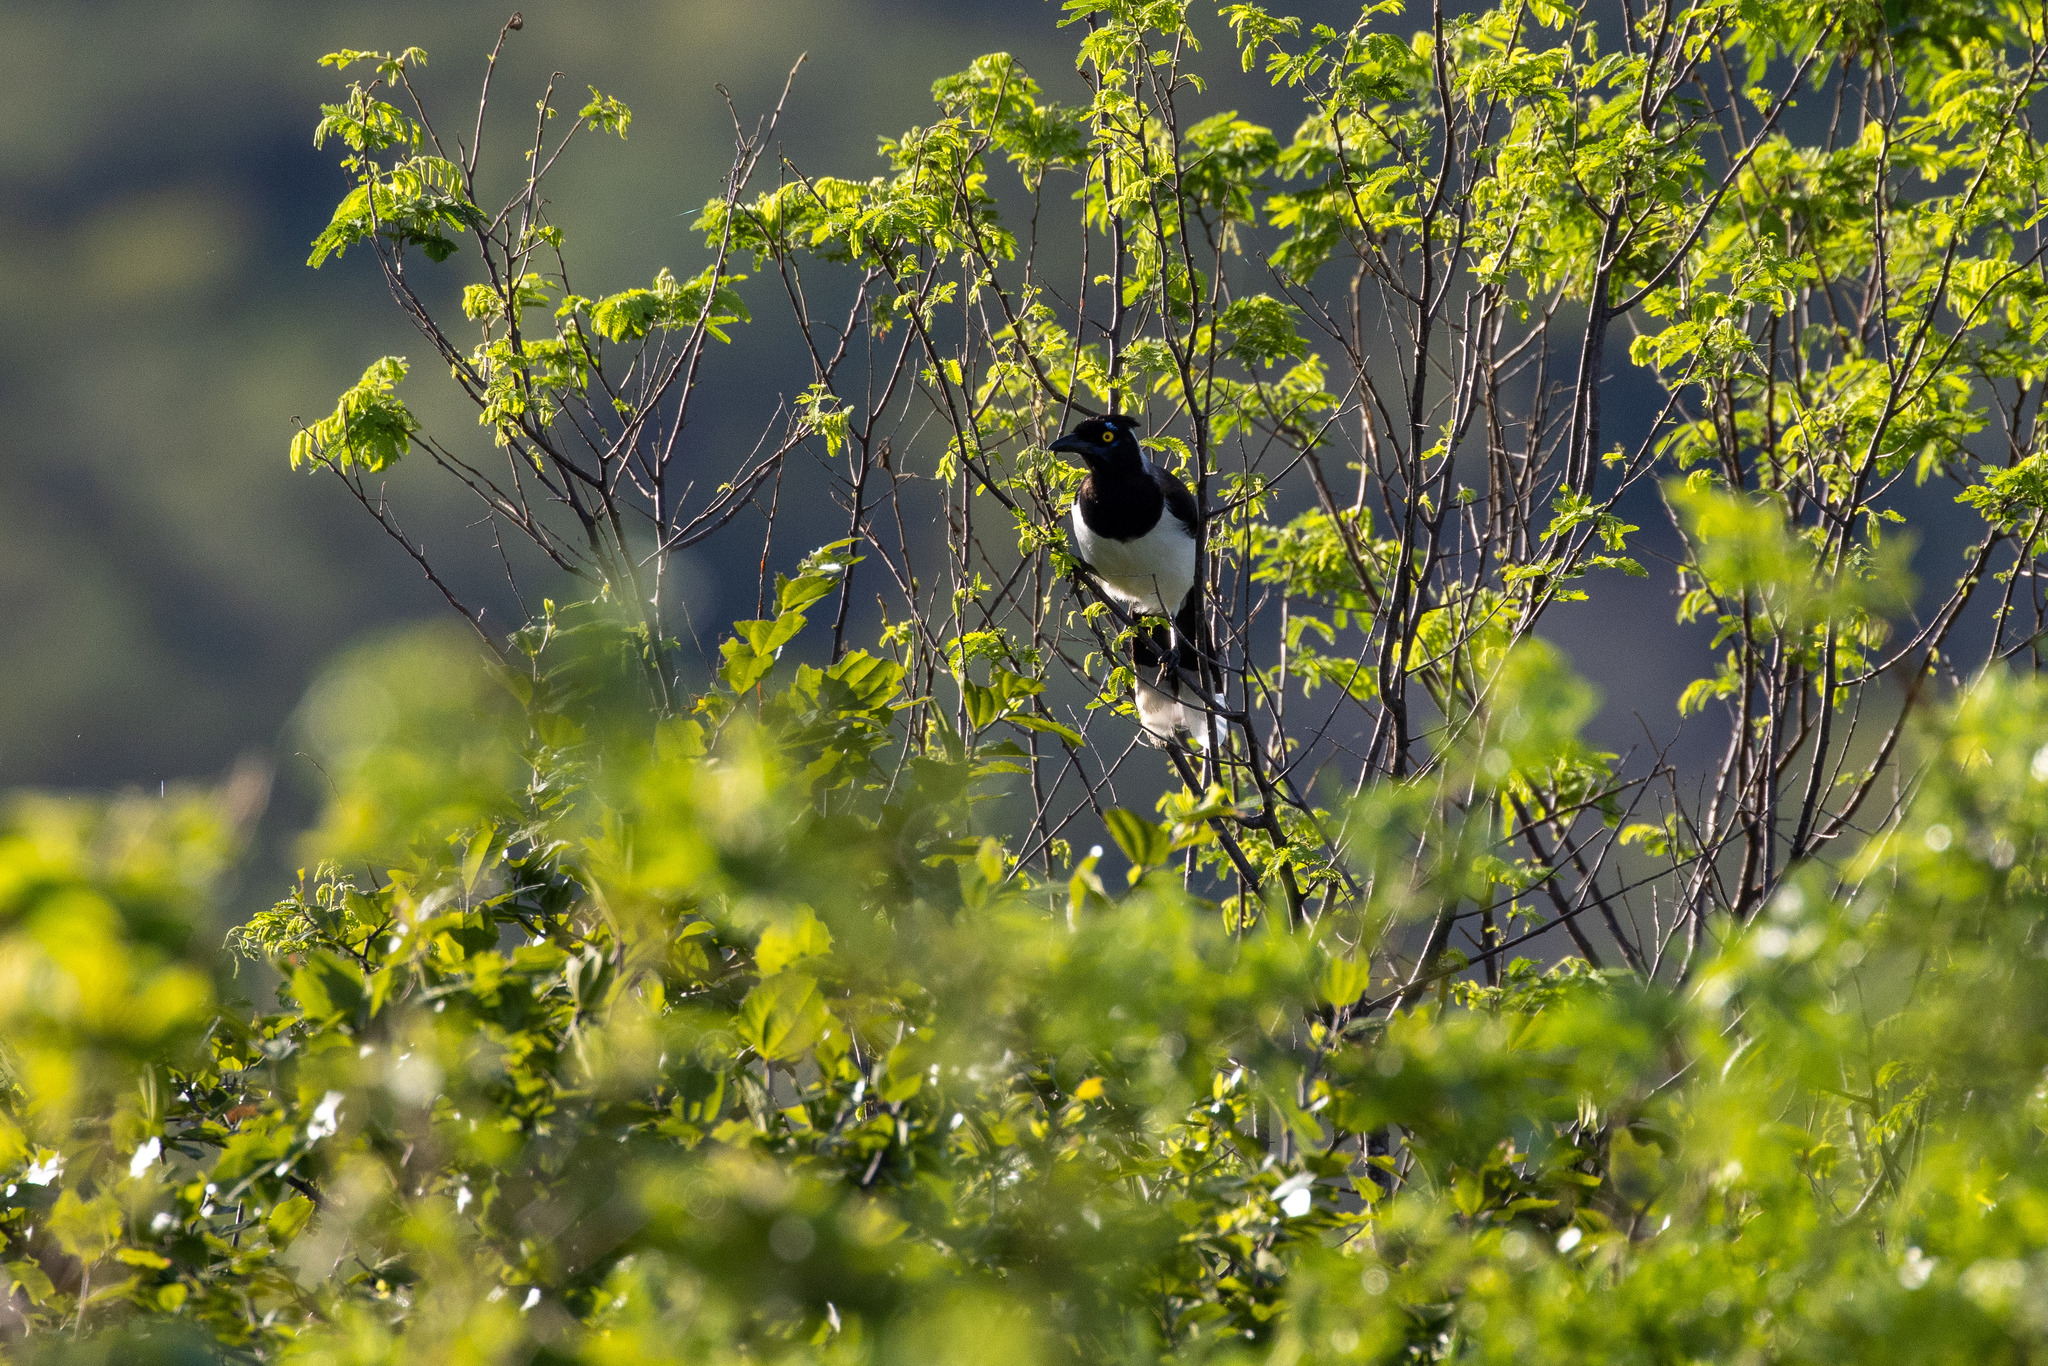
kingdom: Animalia
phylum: Chordata
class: Aves
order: Passeriformes
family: Corvidae
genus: Cyanocorax
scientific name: Cyanocorax cyanopogon
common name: White-naped jay
